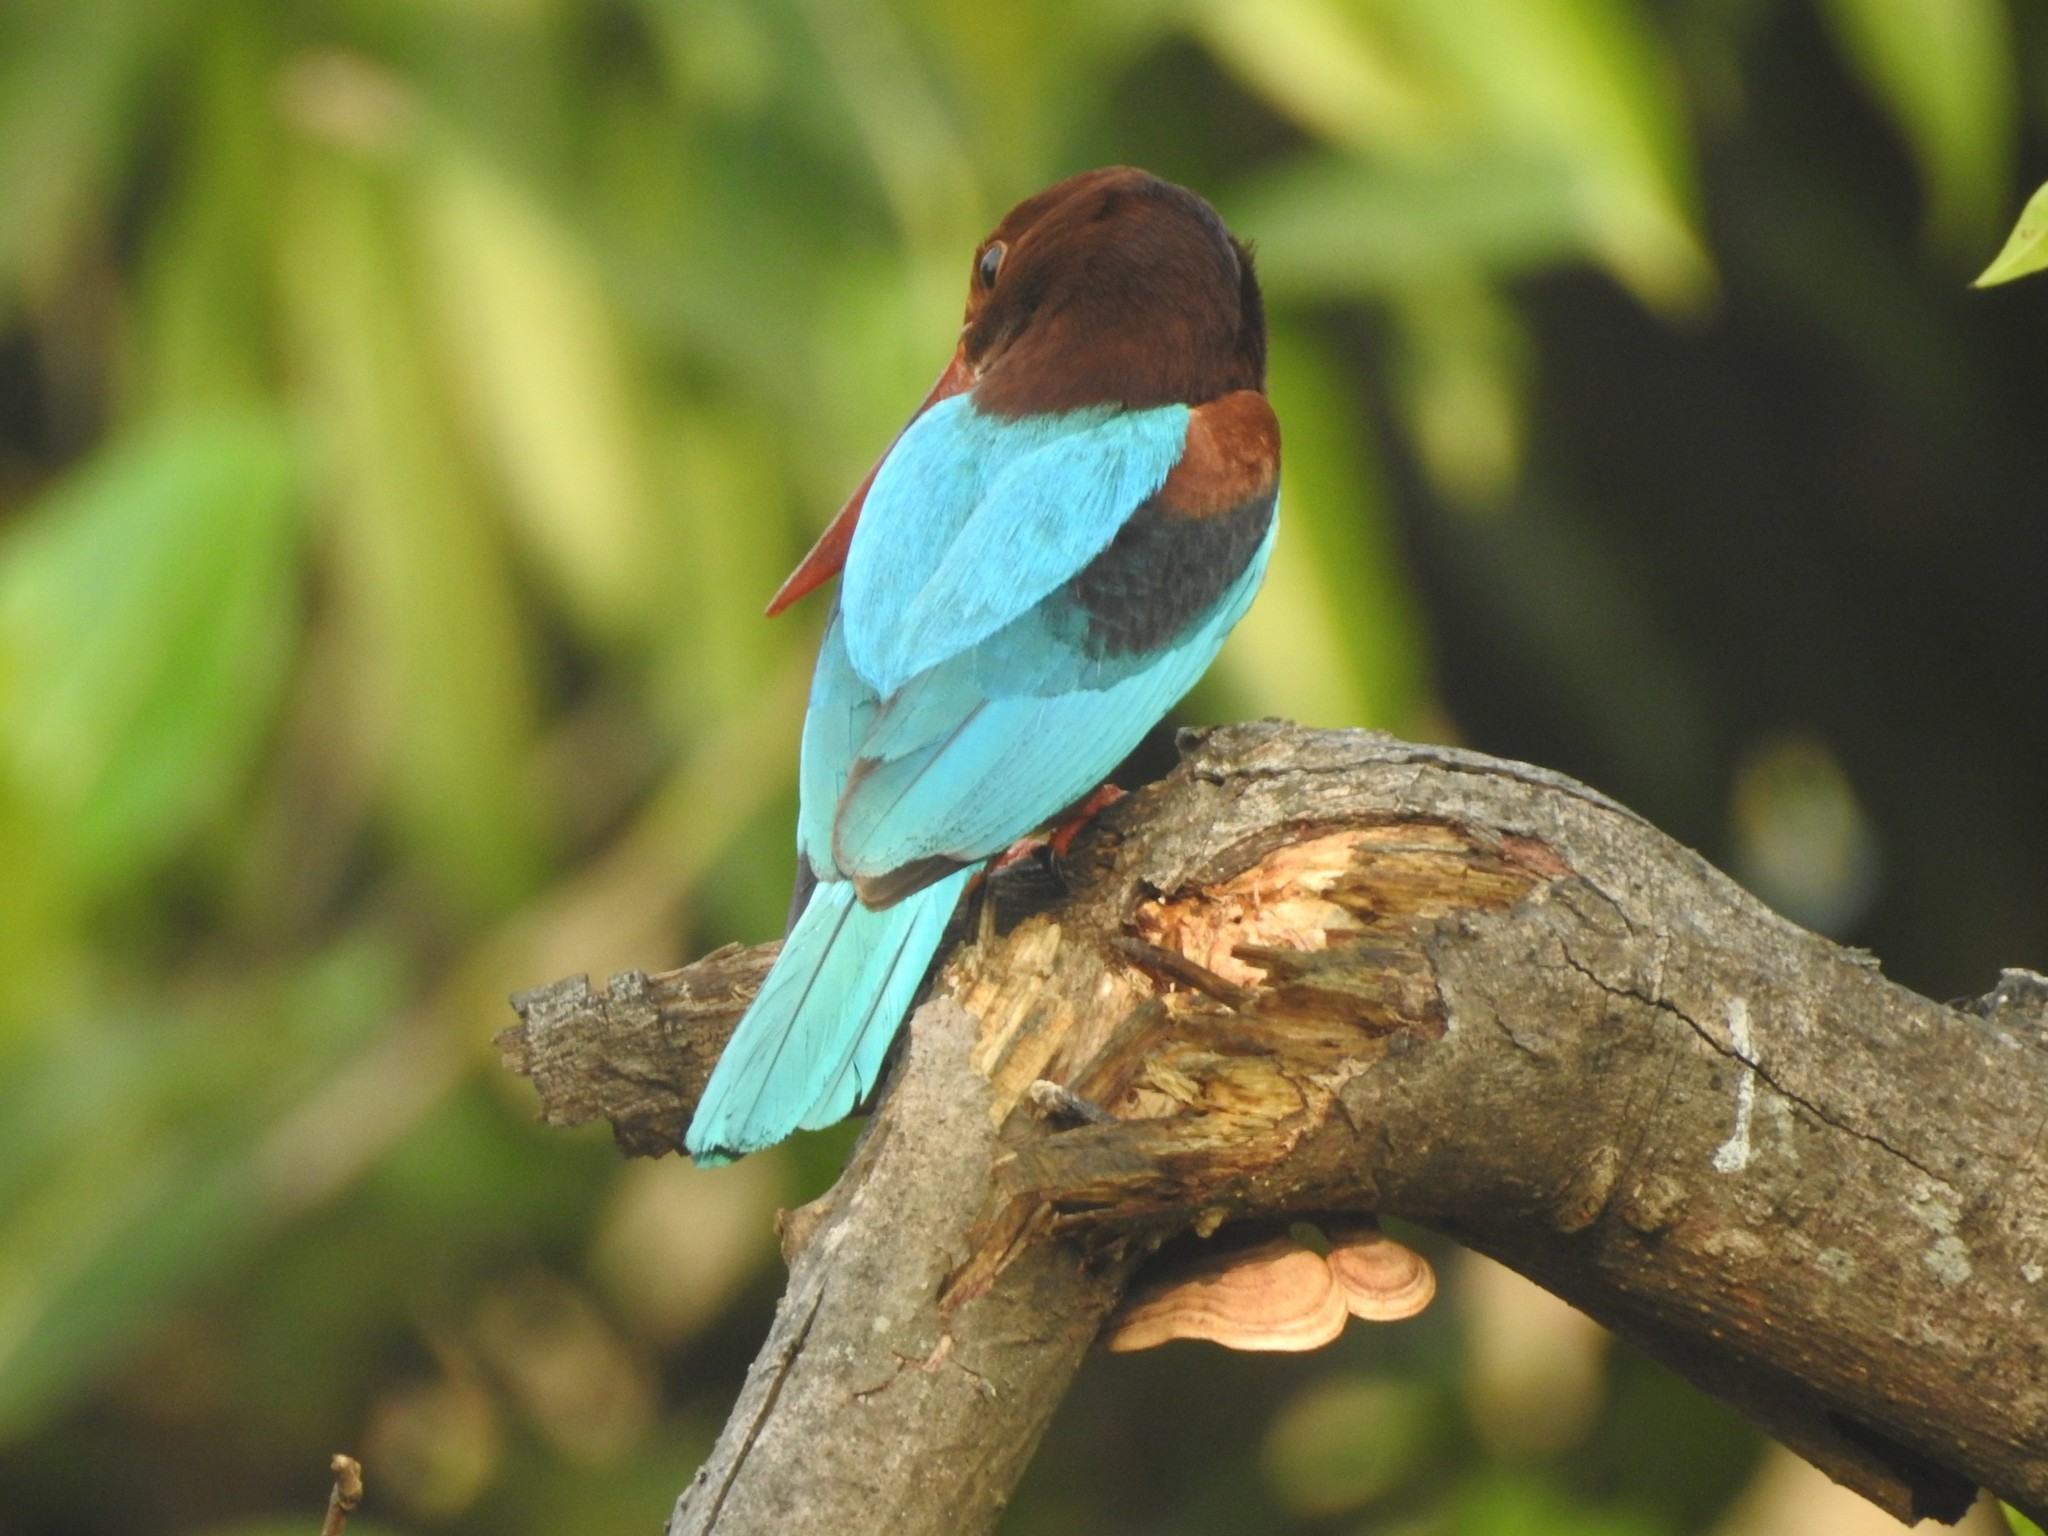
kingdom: Animalia
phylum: Chordata
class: Aves
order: Coraciiformes
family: Alcedinidae
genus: Halcyon
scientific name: Halcyon smyrnensis
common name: White-throated kingfisher
